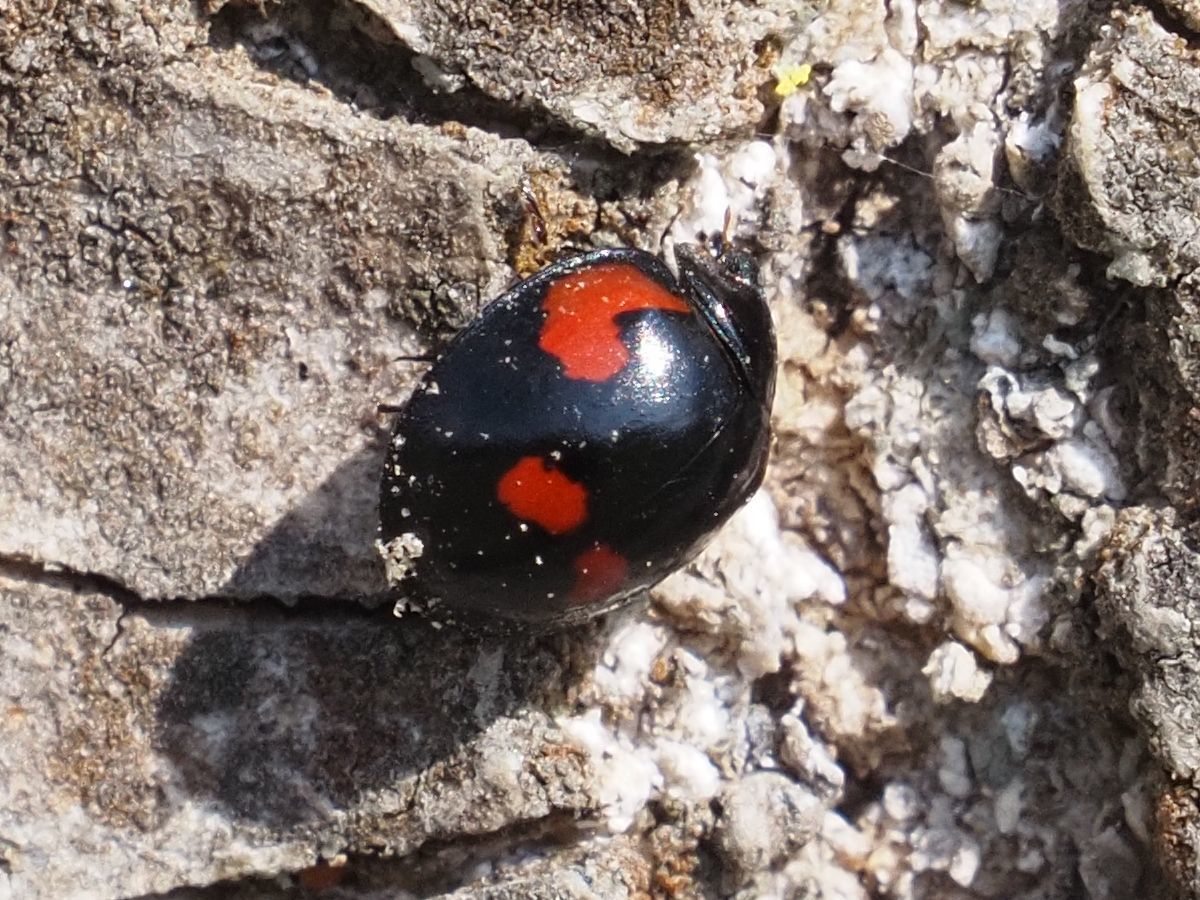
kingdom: Animalia
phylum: Arthropoda
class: Insecta
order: Coleoptera
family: Coccinellidae
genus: Brumus
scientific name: Brumus quadripustulatus
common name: Ladybird beetle
